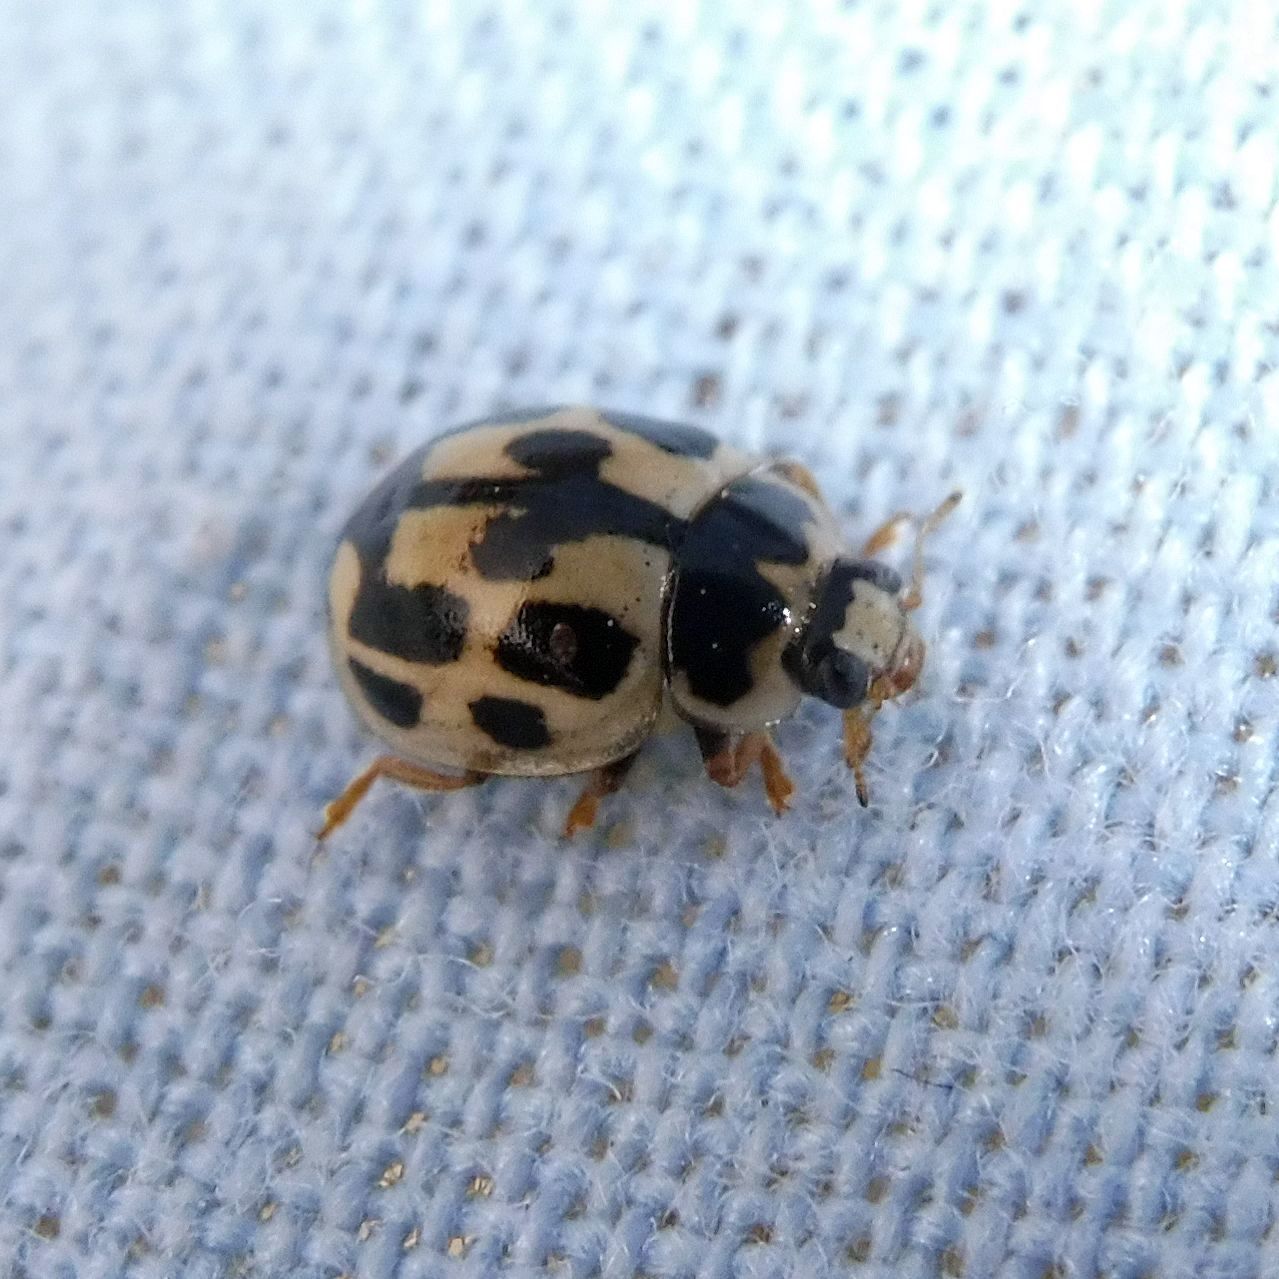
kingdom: Animalia
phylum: Arthropoda
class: Insecta
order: Coleoptera
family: Coccinellidae
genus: Propylaea
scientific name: Propylaea quatuordecimpunctata
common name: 14-spotted ladybird beetle
